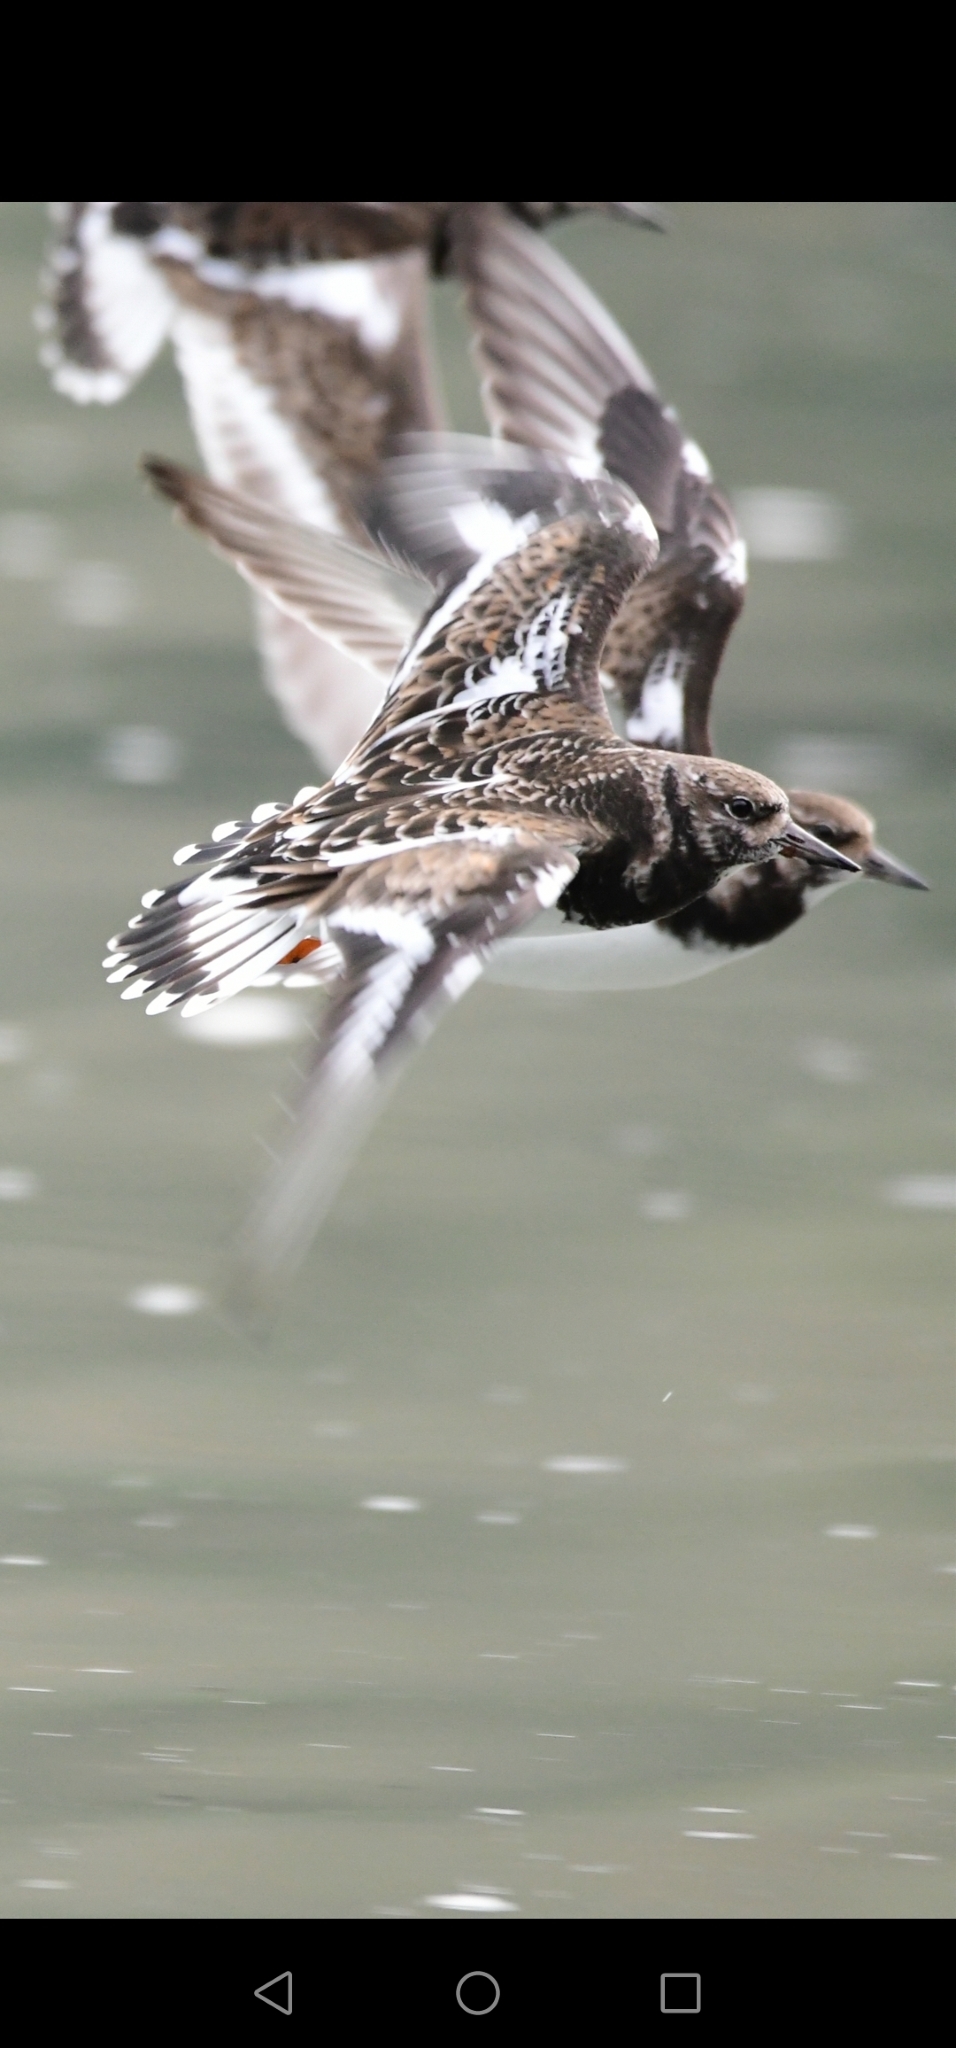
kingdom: Animalia
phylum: Chordata
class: Aves
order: Charadriiformes
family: Scolopacidae
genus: Arenaria
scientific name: Arenaria interpres
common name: Ruddy turnstone
